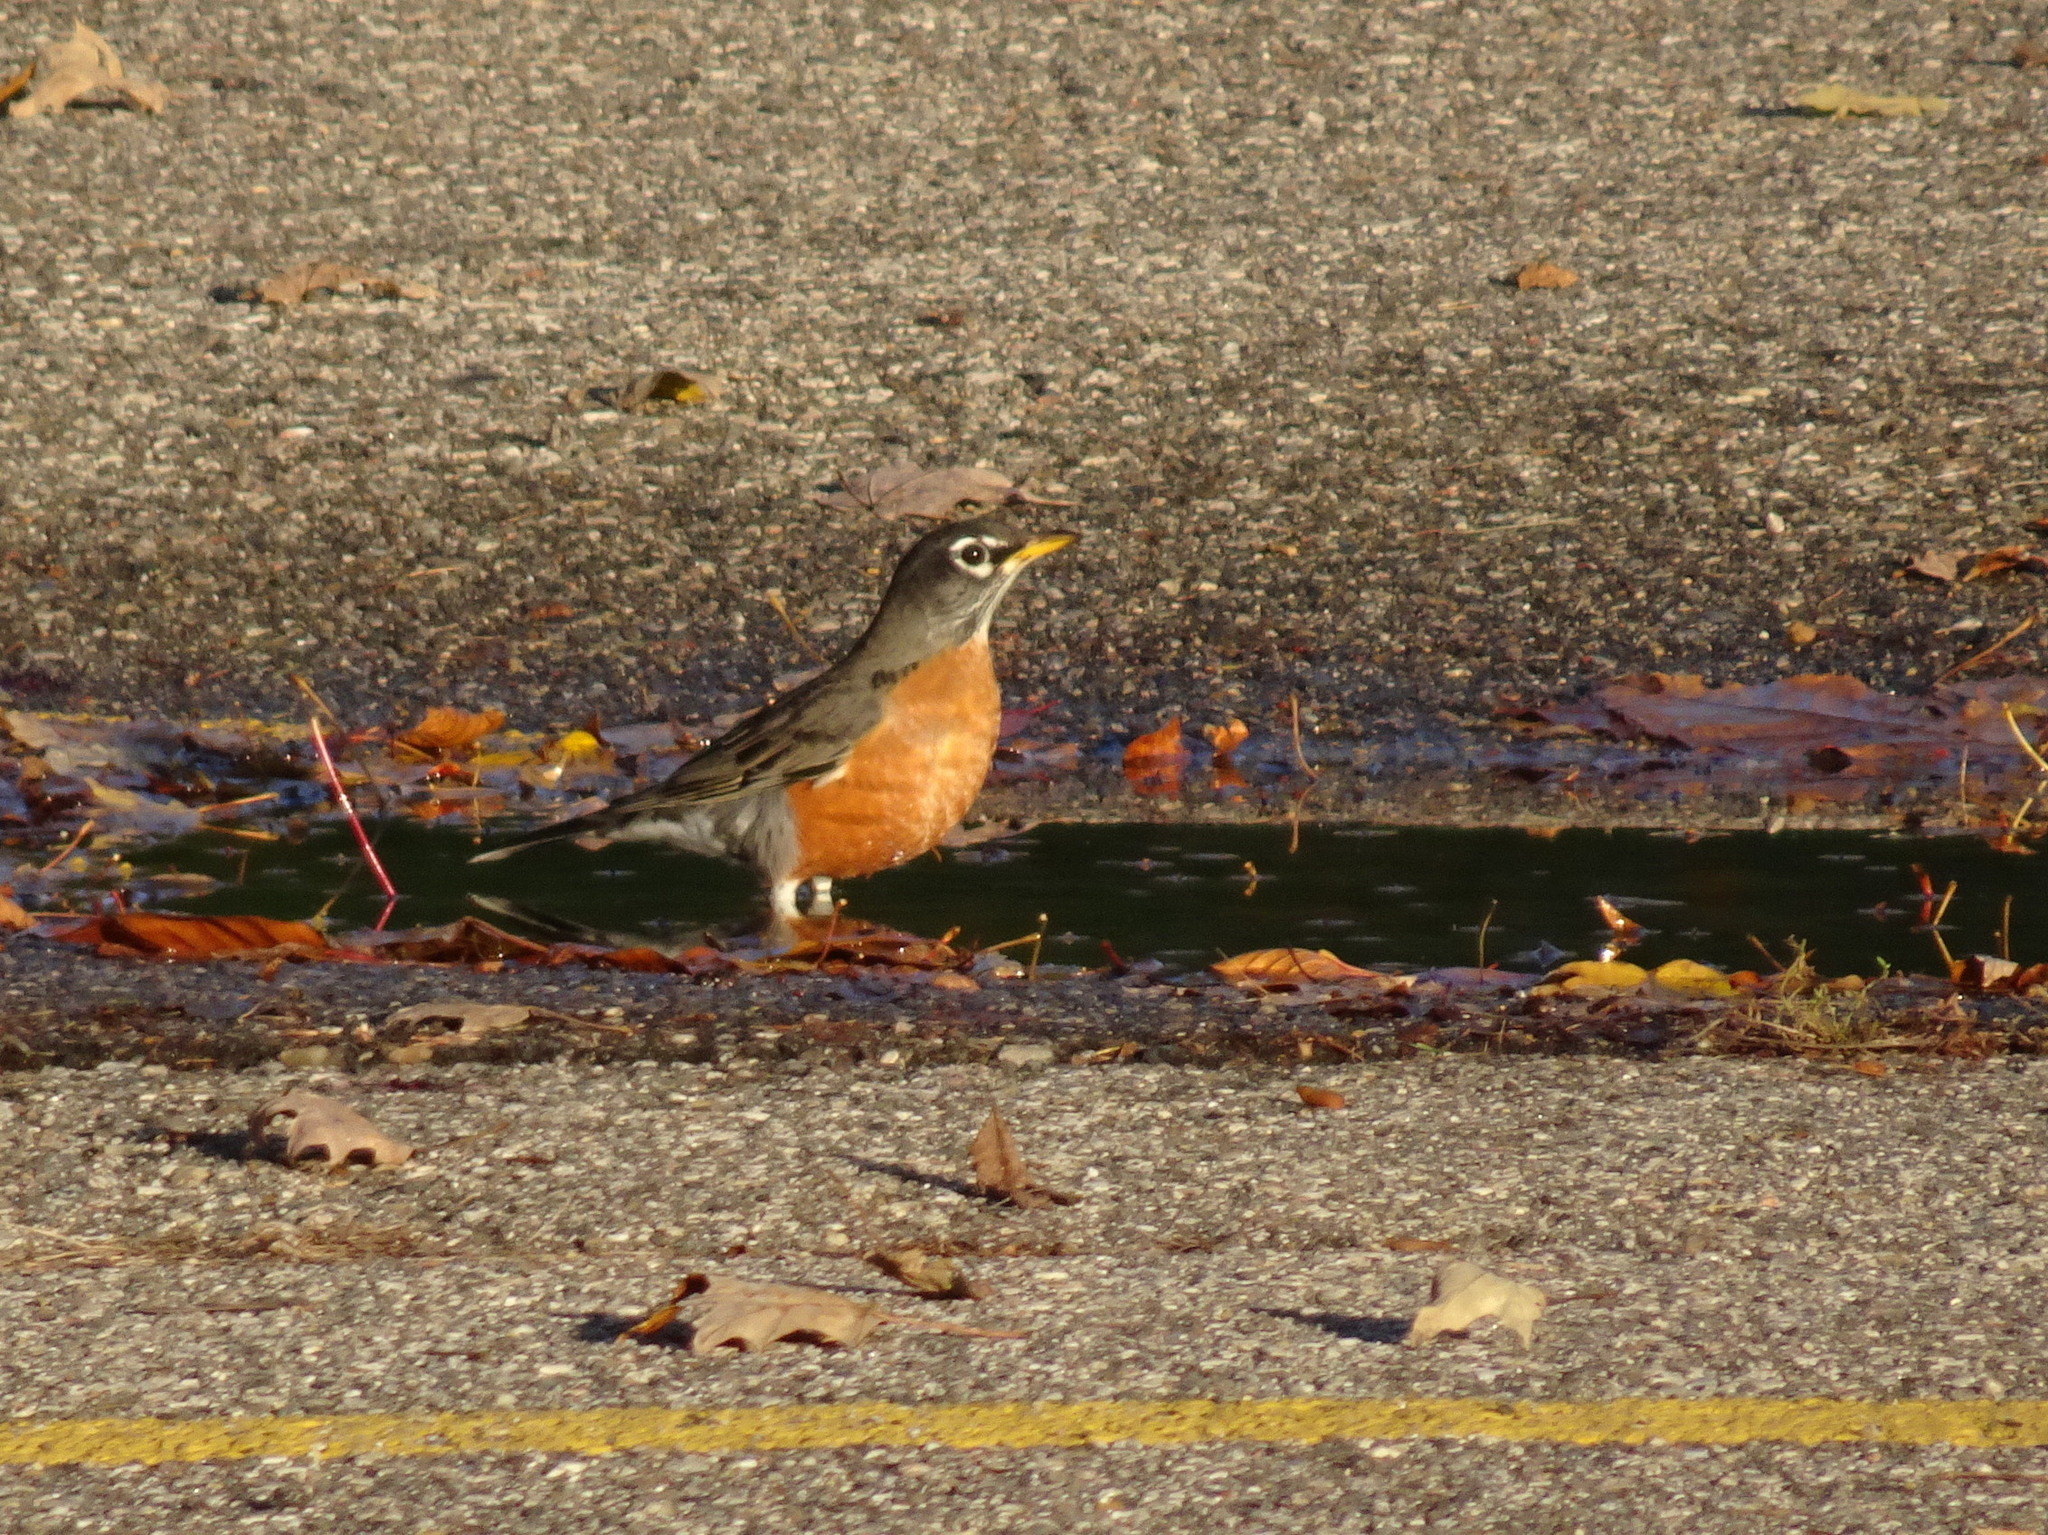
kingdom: Animalia
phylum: Chordata
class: Aves
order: Passeriformes
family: Turdidae
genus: Turdus
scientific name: Turdus migratorius
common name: American robin
